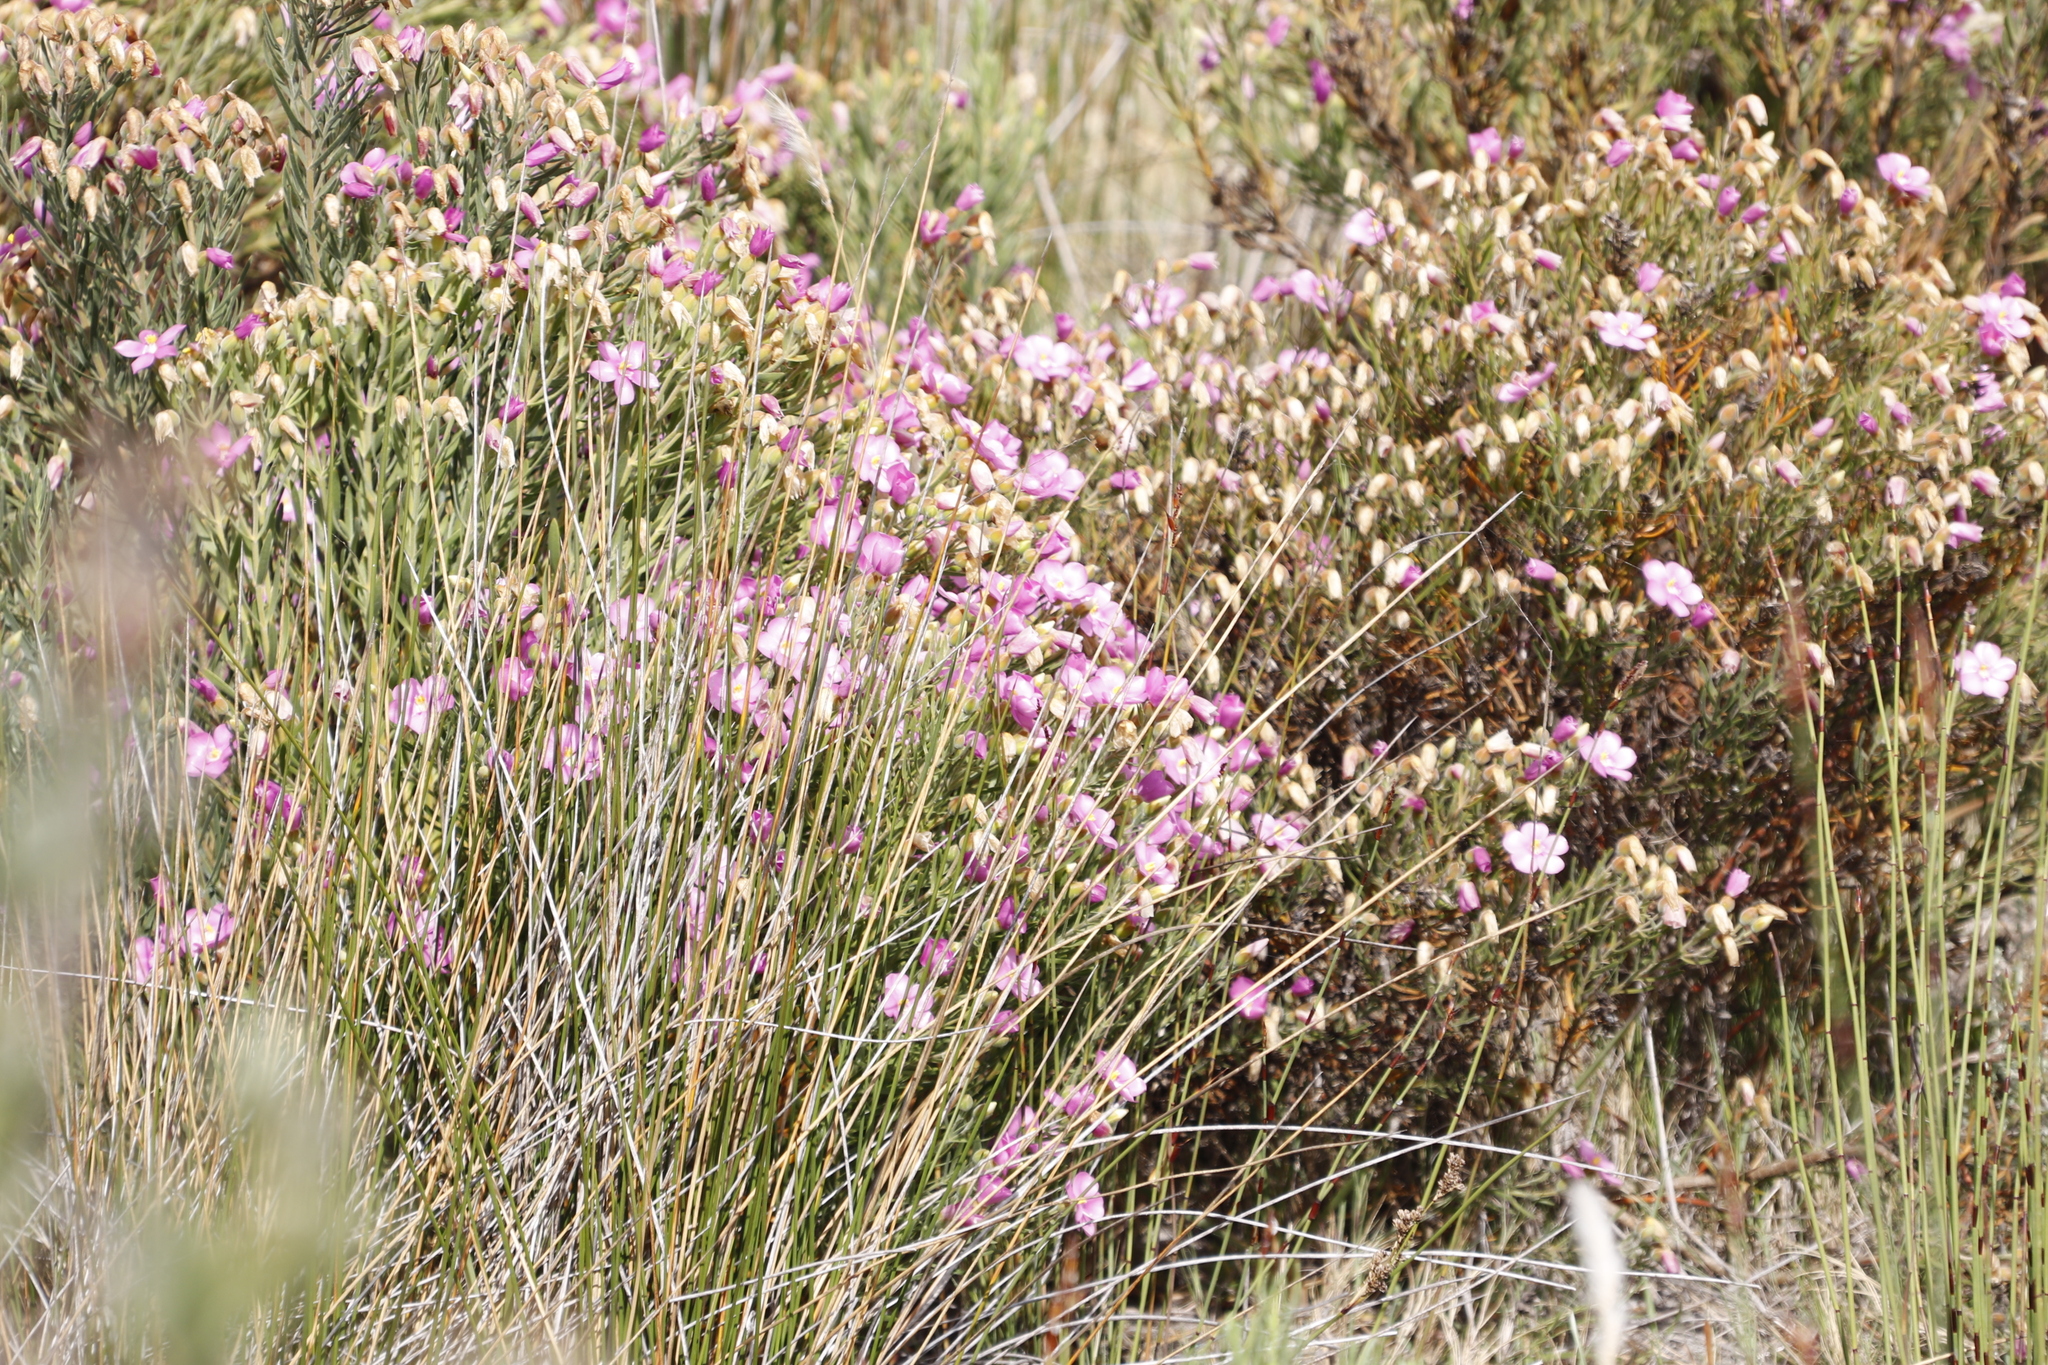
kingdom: Plantae
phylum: Tracheophyta
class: Magnoliopsida
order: Gentianales
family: Gentianaceae
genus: Orphium
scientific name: Orphium frutescens
